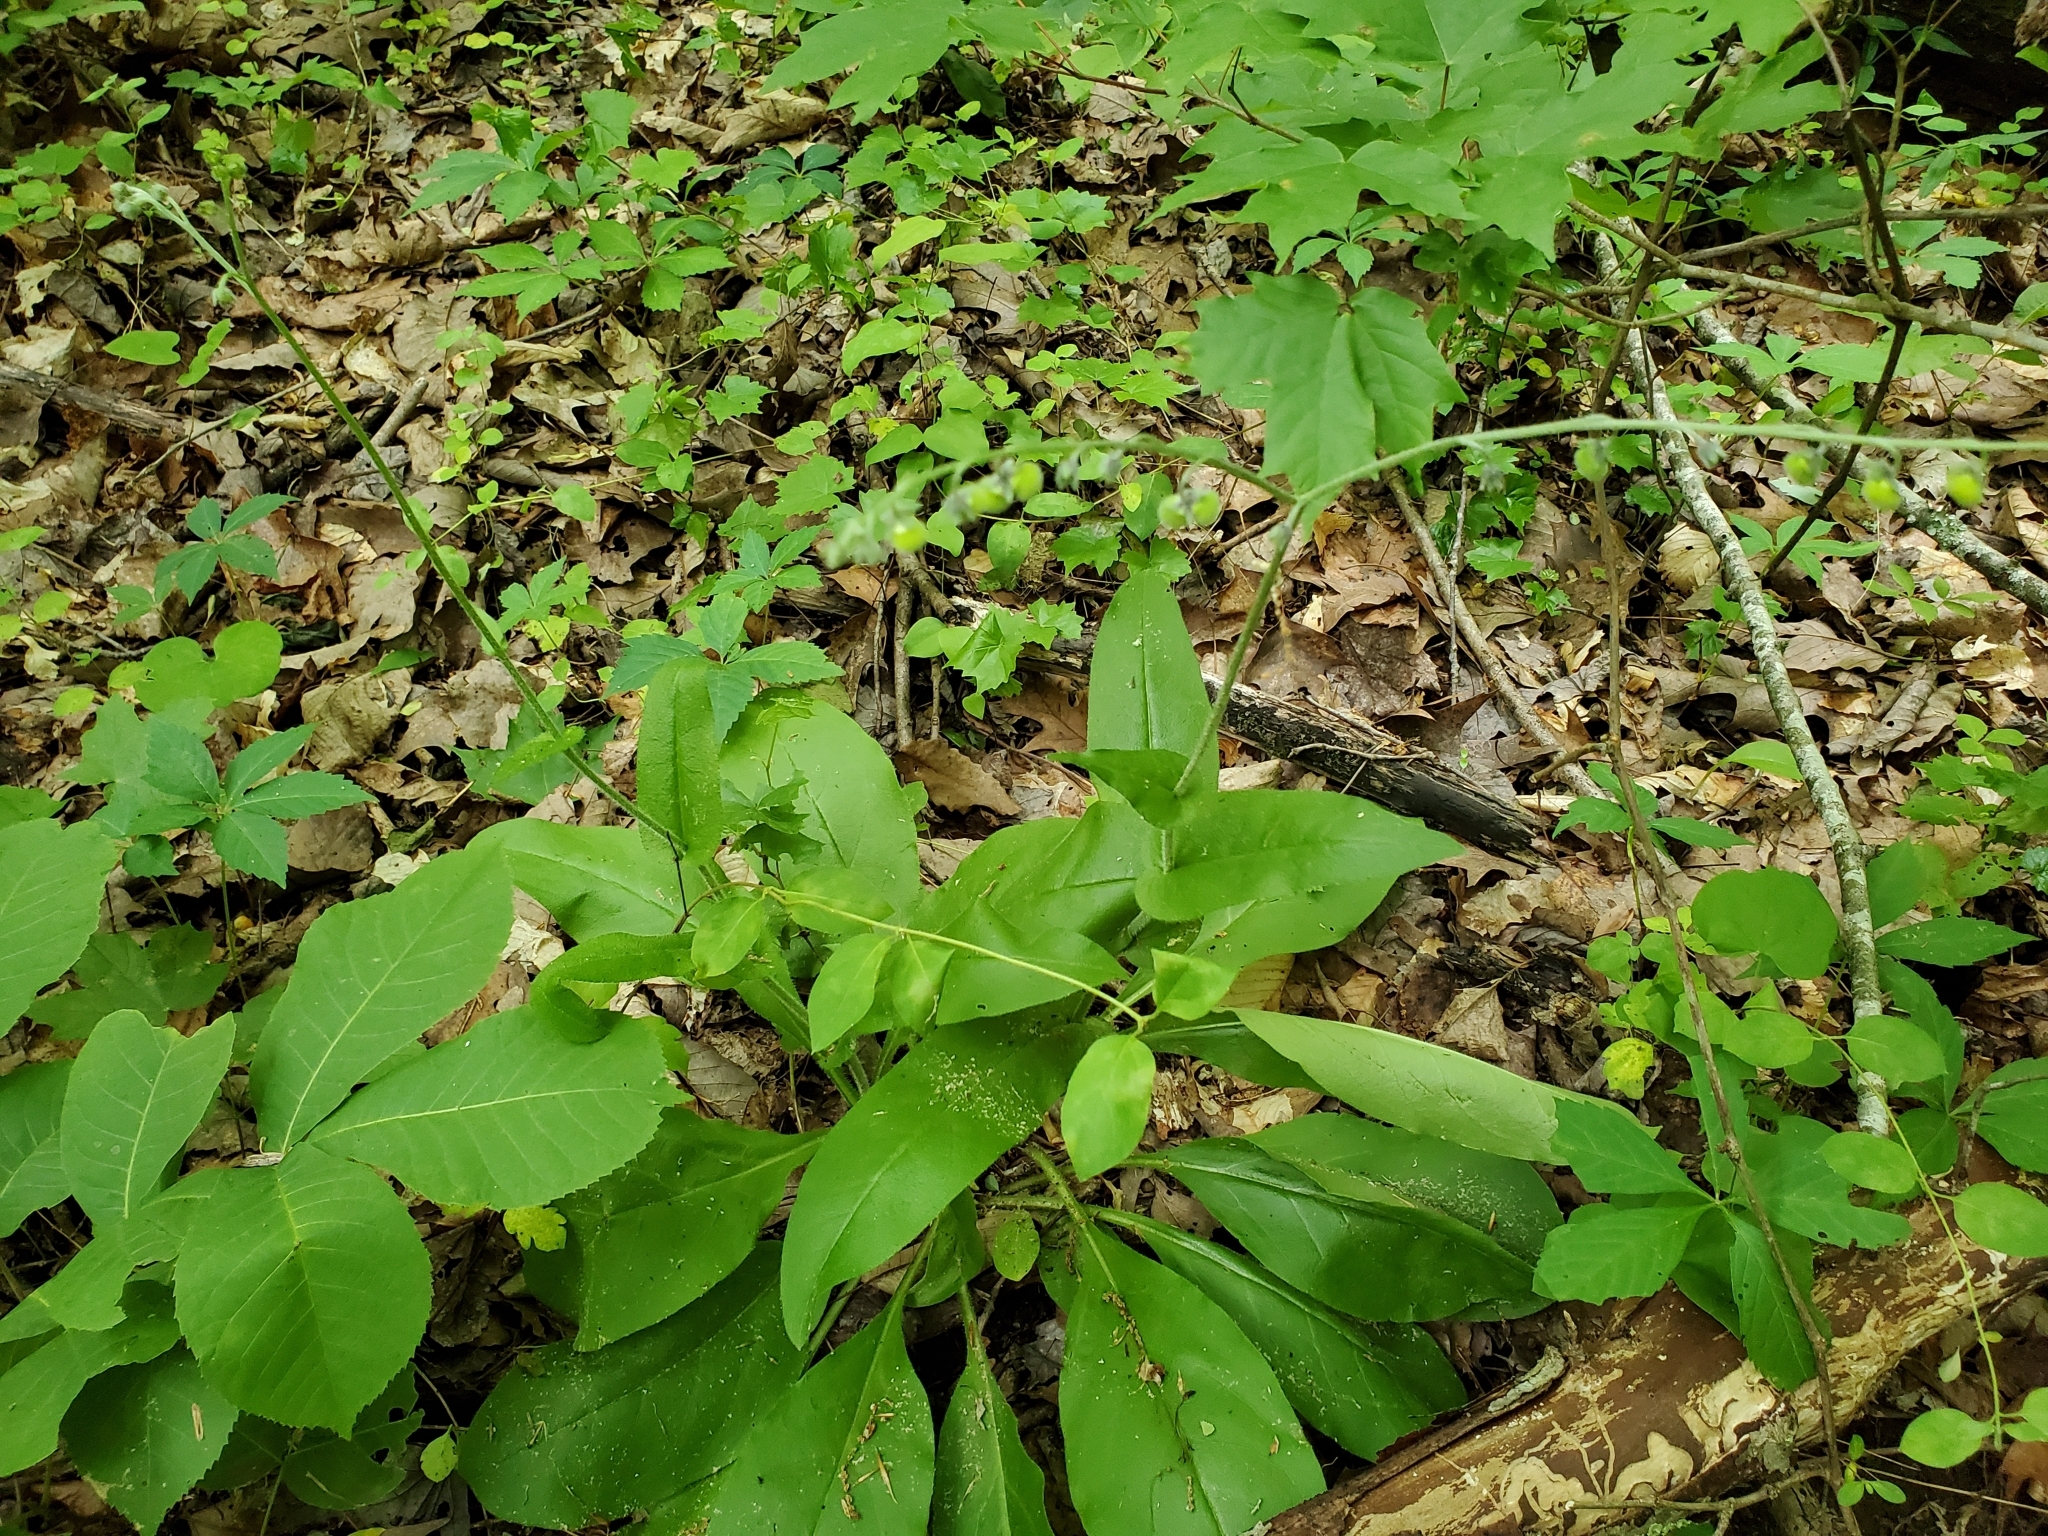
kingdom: Plantae
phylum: Tracheophyta
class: Magnoliopsida
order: Boraginales
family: Boraginaceae
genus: Andersonglossum
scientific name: Andersonglossum virginianum
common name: Wild comfrey
